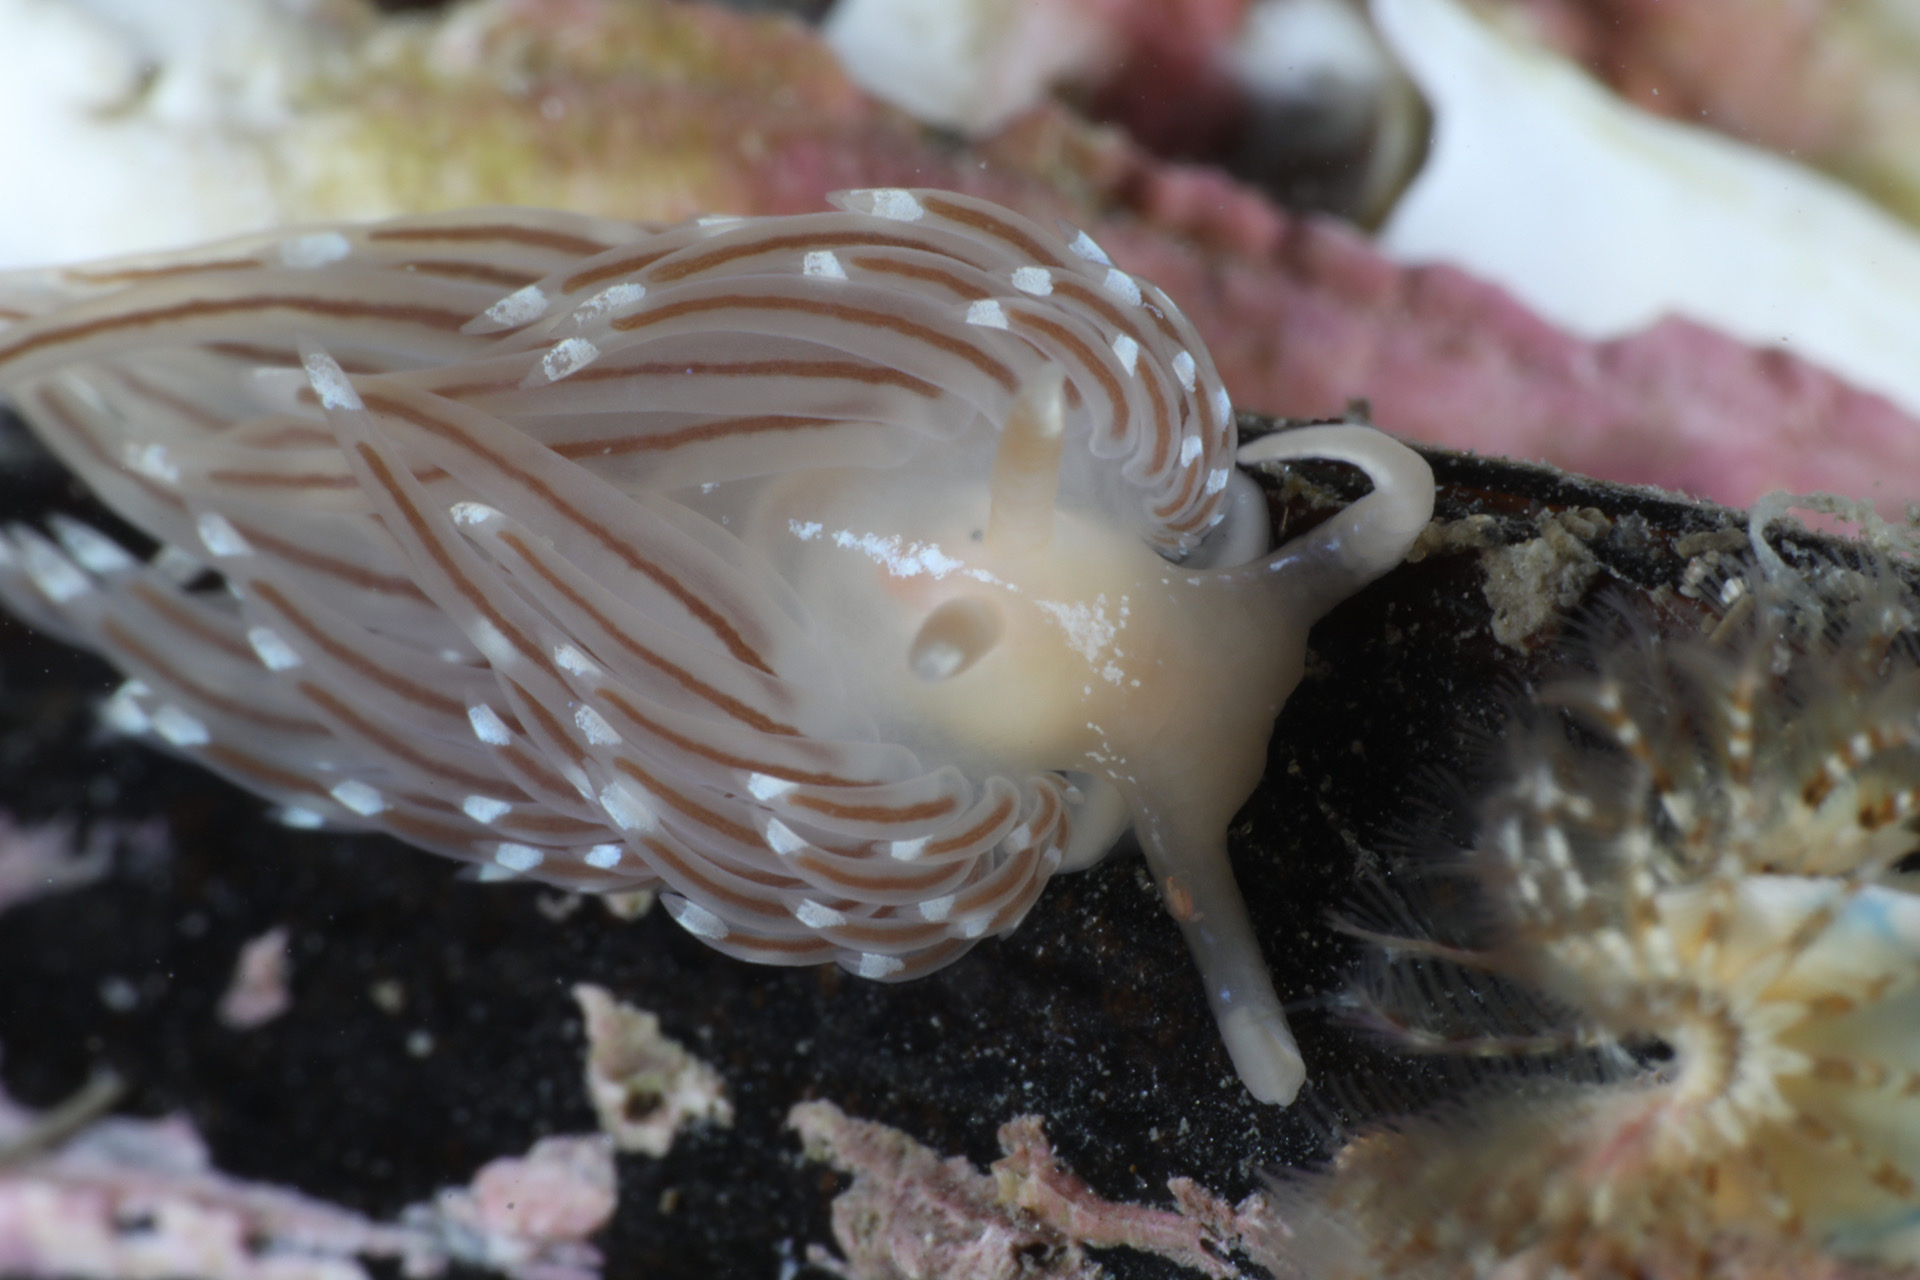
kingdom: Animalia
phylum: Mollusca
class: Gastropoda
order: Nudibranchia
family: Facelinidae
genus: Facelina
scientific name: Facelina bostoniensis
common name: Boston facelina
